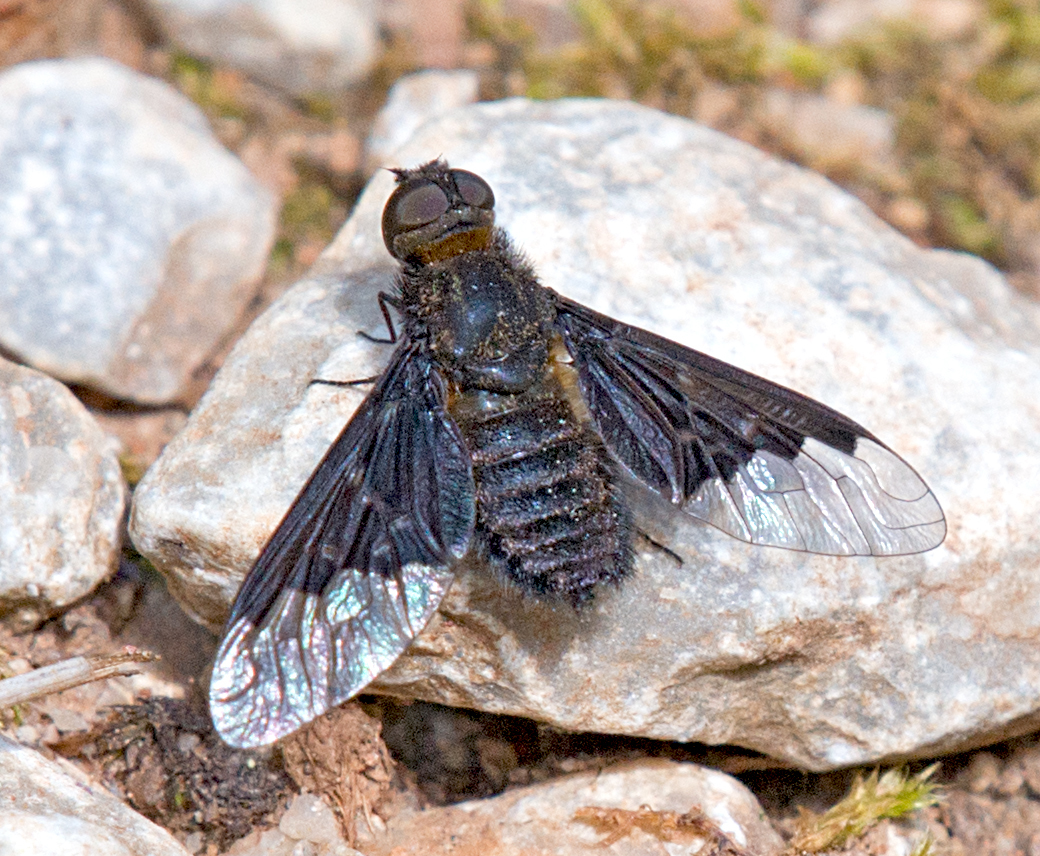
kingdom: Animalia
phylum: Arthropoda
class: Insecta
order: Diptera
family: Bombyliidae
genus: Hemipenthes
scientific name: Hemipenthes morio
